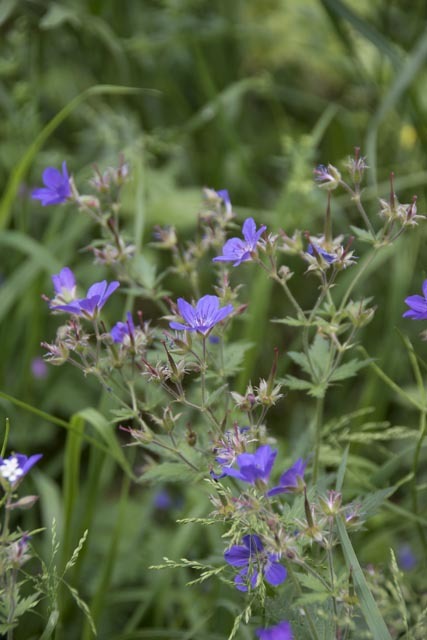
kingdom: Plantae
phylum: Tracheophyta
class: Magnoliopsida
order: Geraniales
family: Geraniaceae
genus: Geranium
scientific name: Geranium pratense
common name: Meadow crane's-bill
